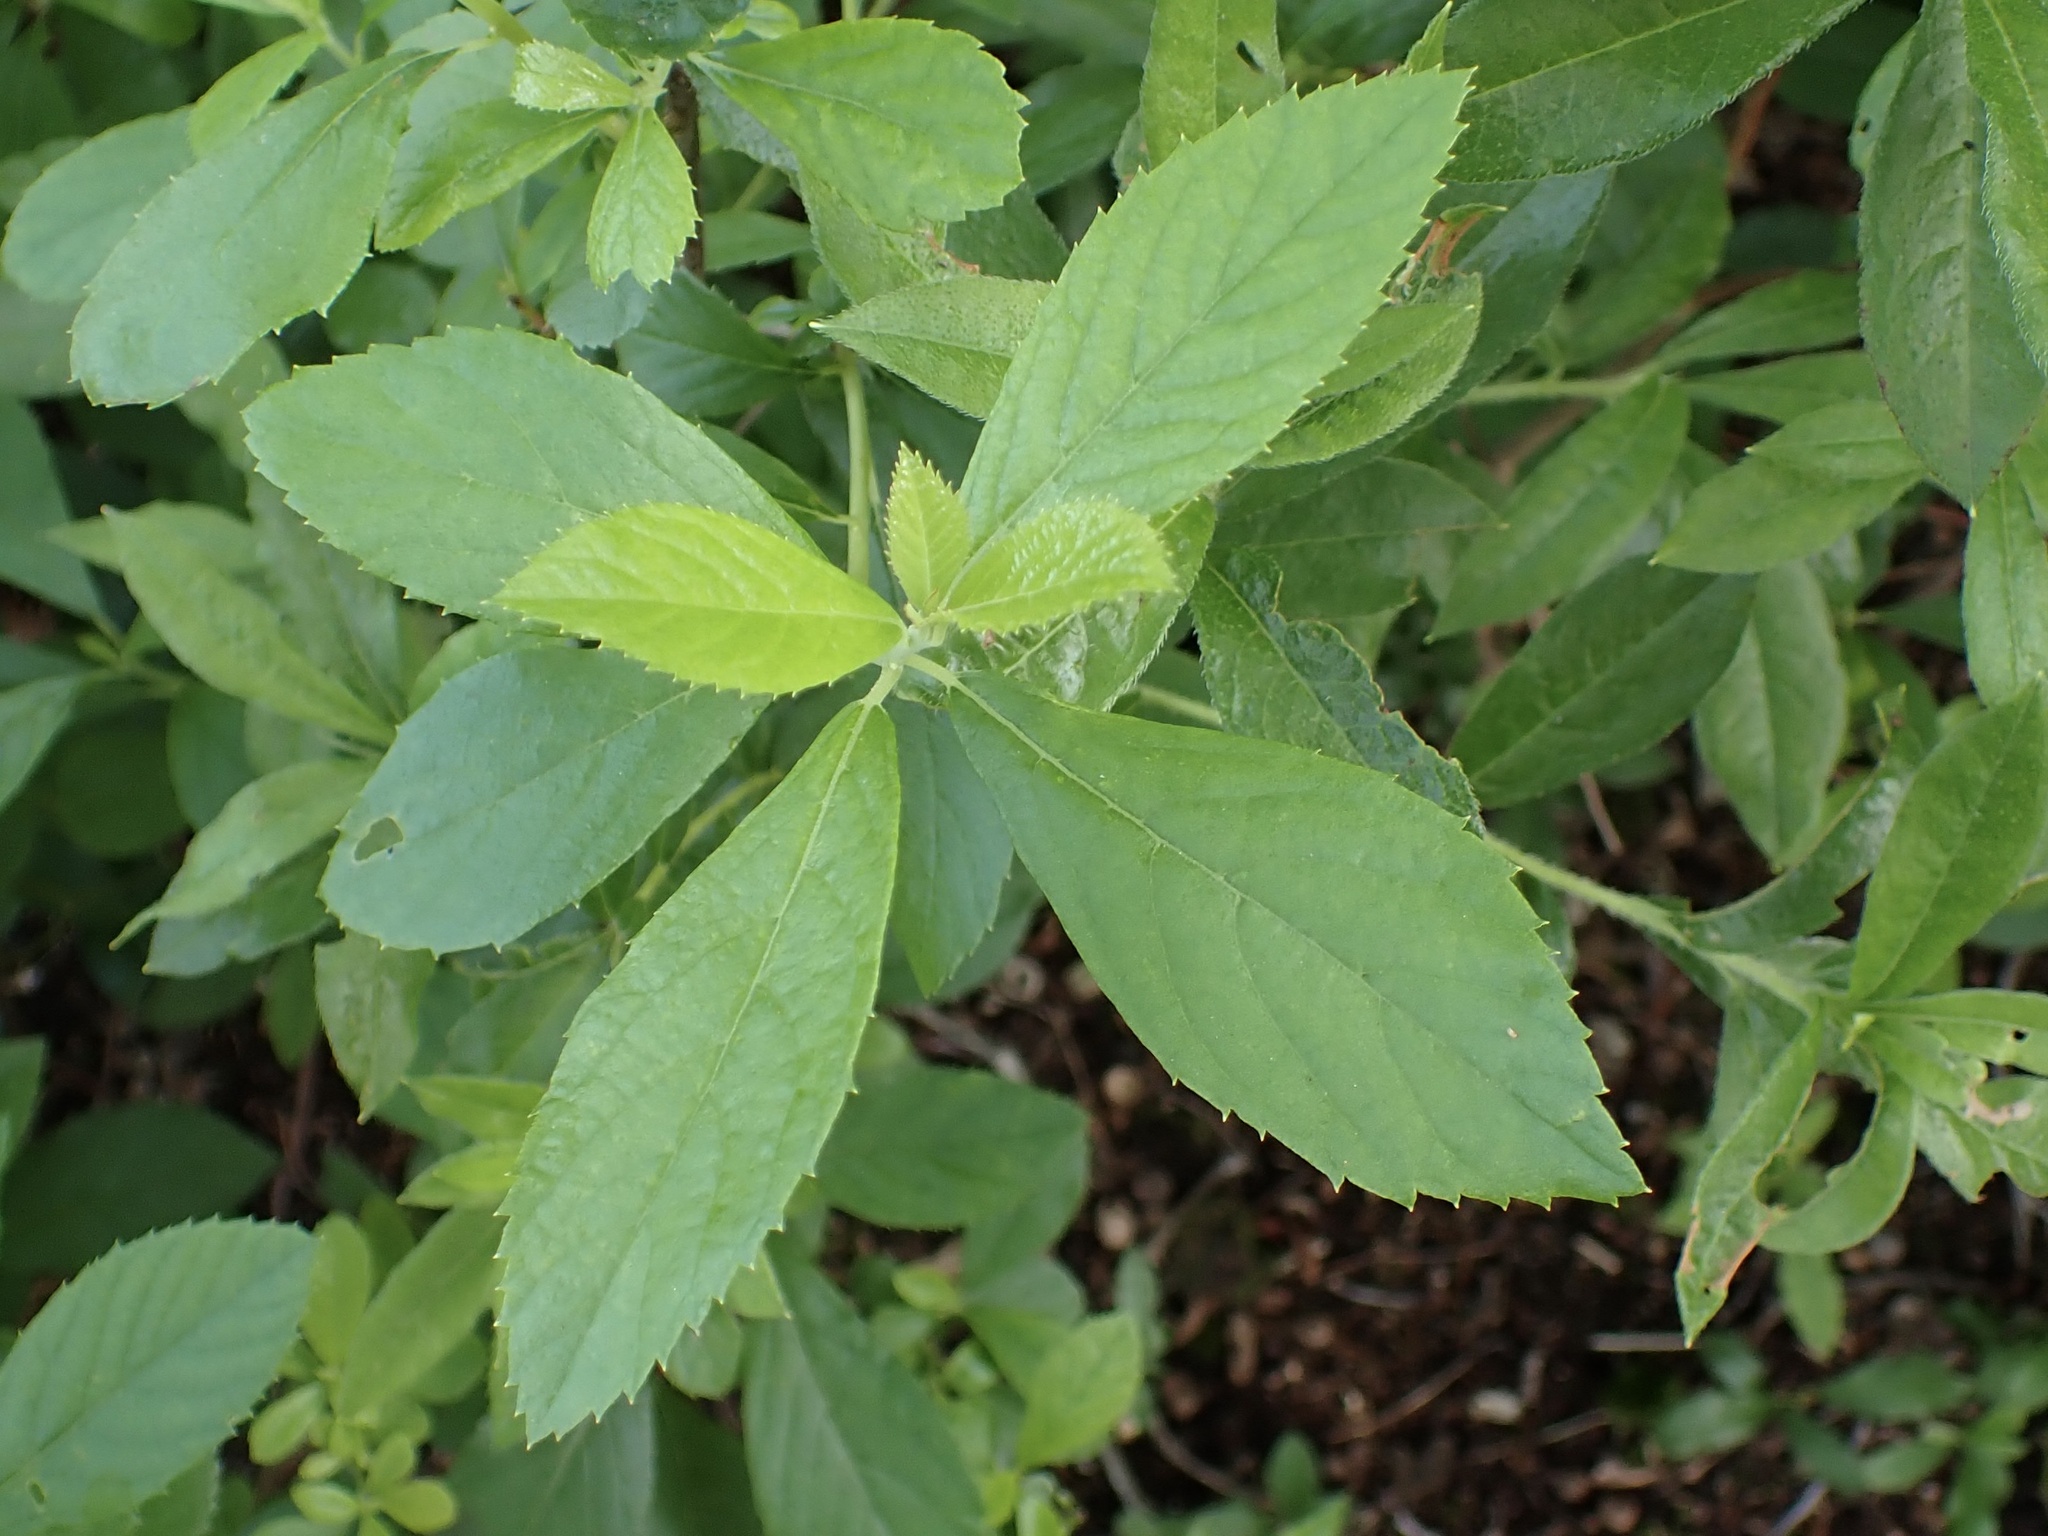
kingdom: Plantae
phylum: Tracheophyta
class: Magnoliopsida
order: Ericales
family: Clethraceae
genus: Clethra
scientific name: Clethra alnifolia
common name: Sweet pepperbush
